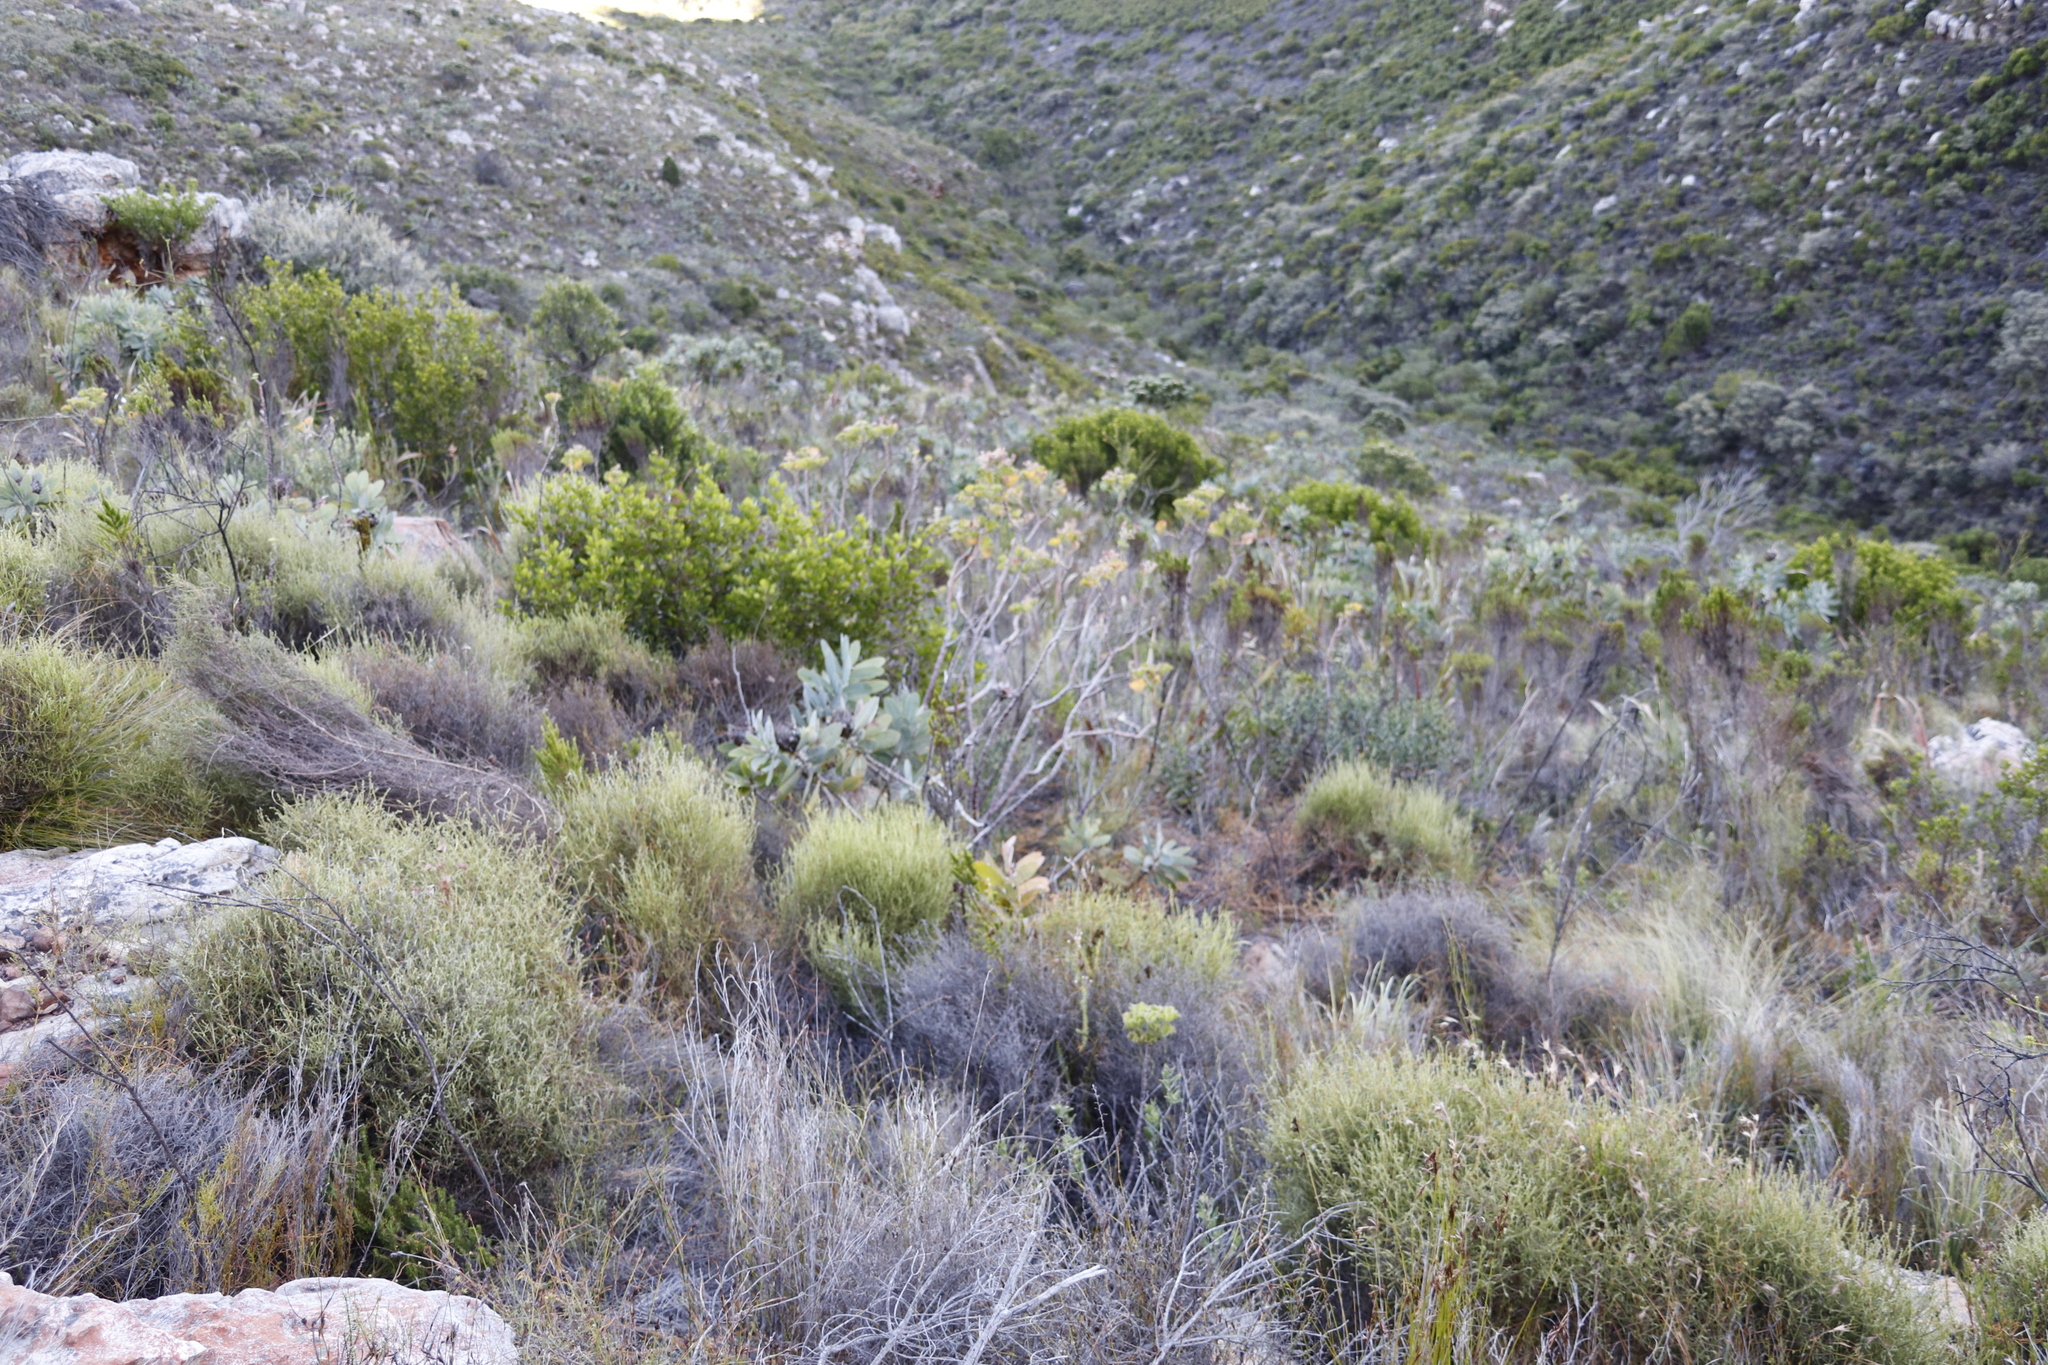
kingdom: Plantae
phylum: Tracheophyta
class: Magnoliopsida
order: Geraniales
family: Geraniaceae
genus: Pelargonium
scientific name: Pelargonium cucullatum
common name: Tree pelargonium
